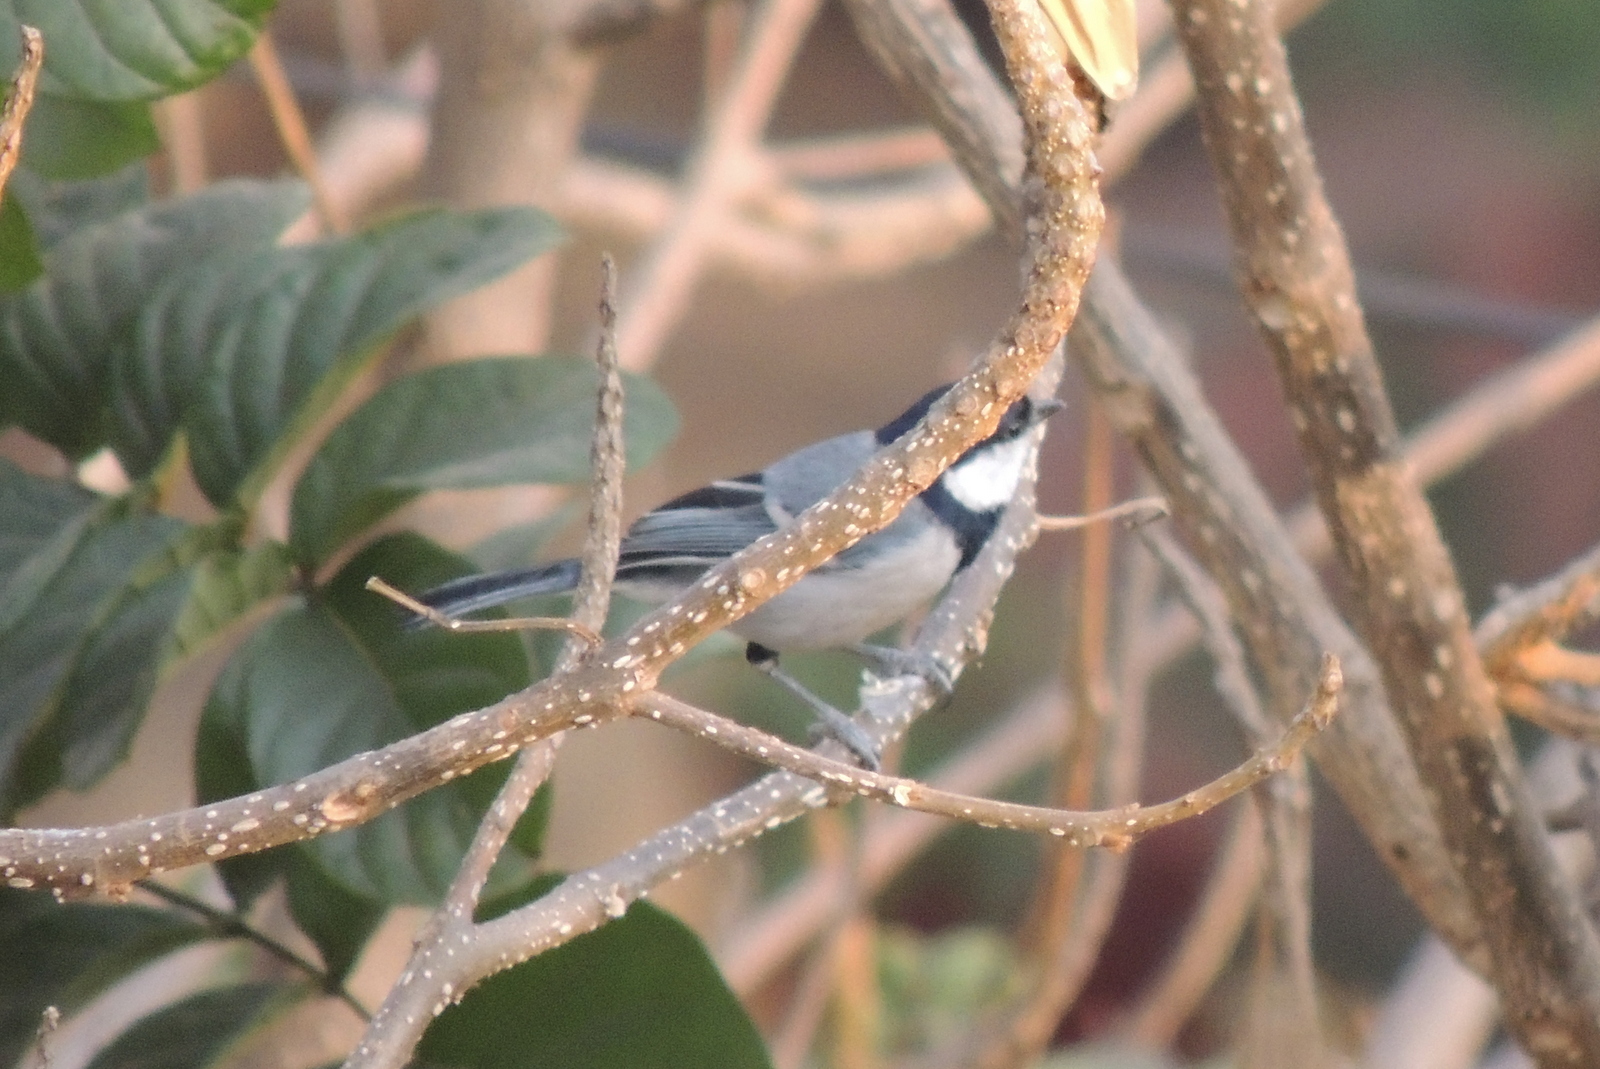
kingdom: Animalia
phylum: Chordata
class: Aves
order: Passeriformes
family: Paridae
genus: Parus
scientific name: Parus cinereus
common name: Cinereous tit
